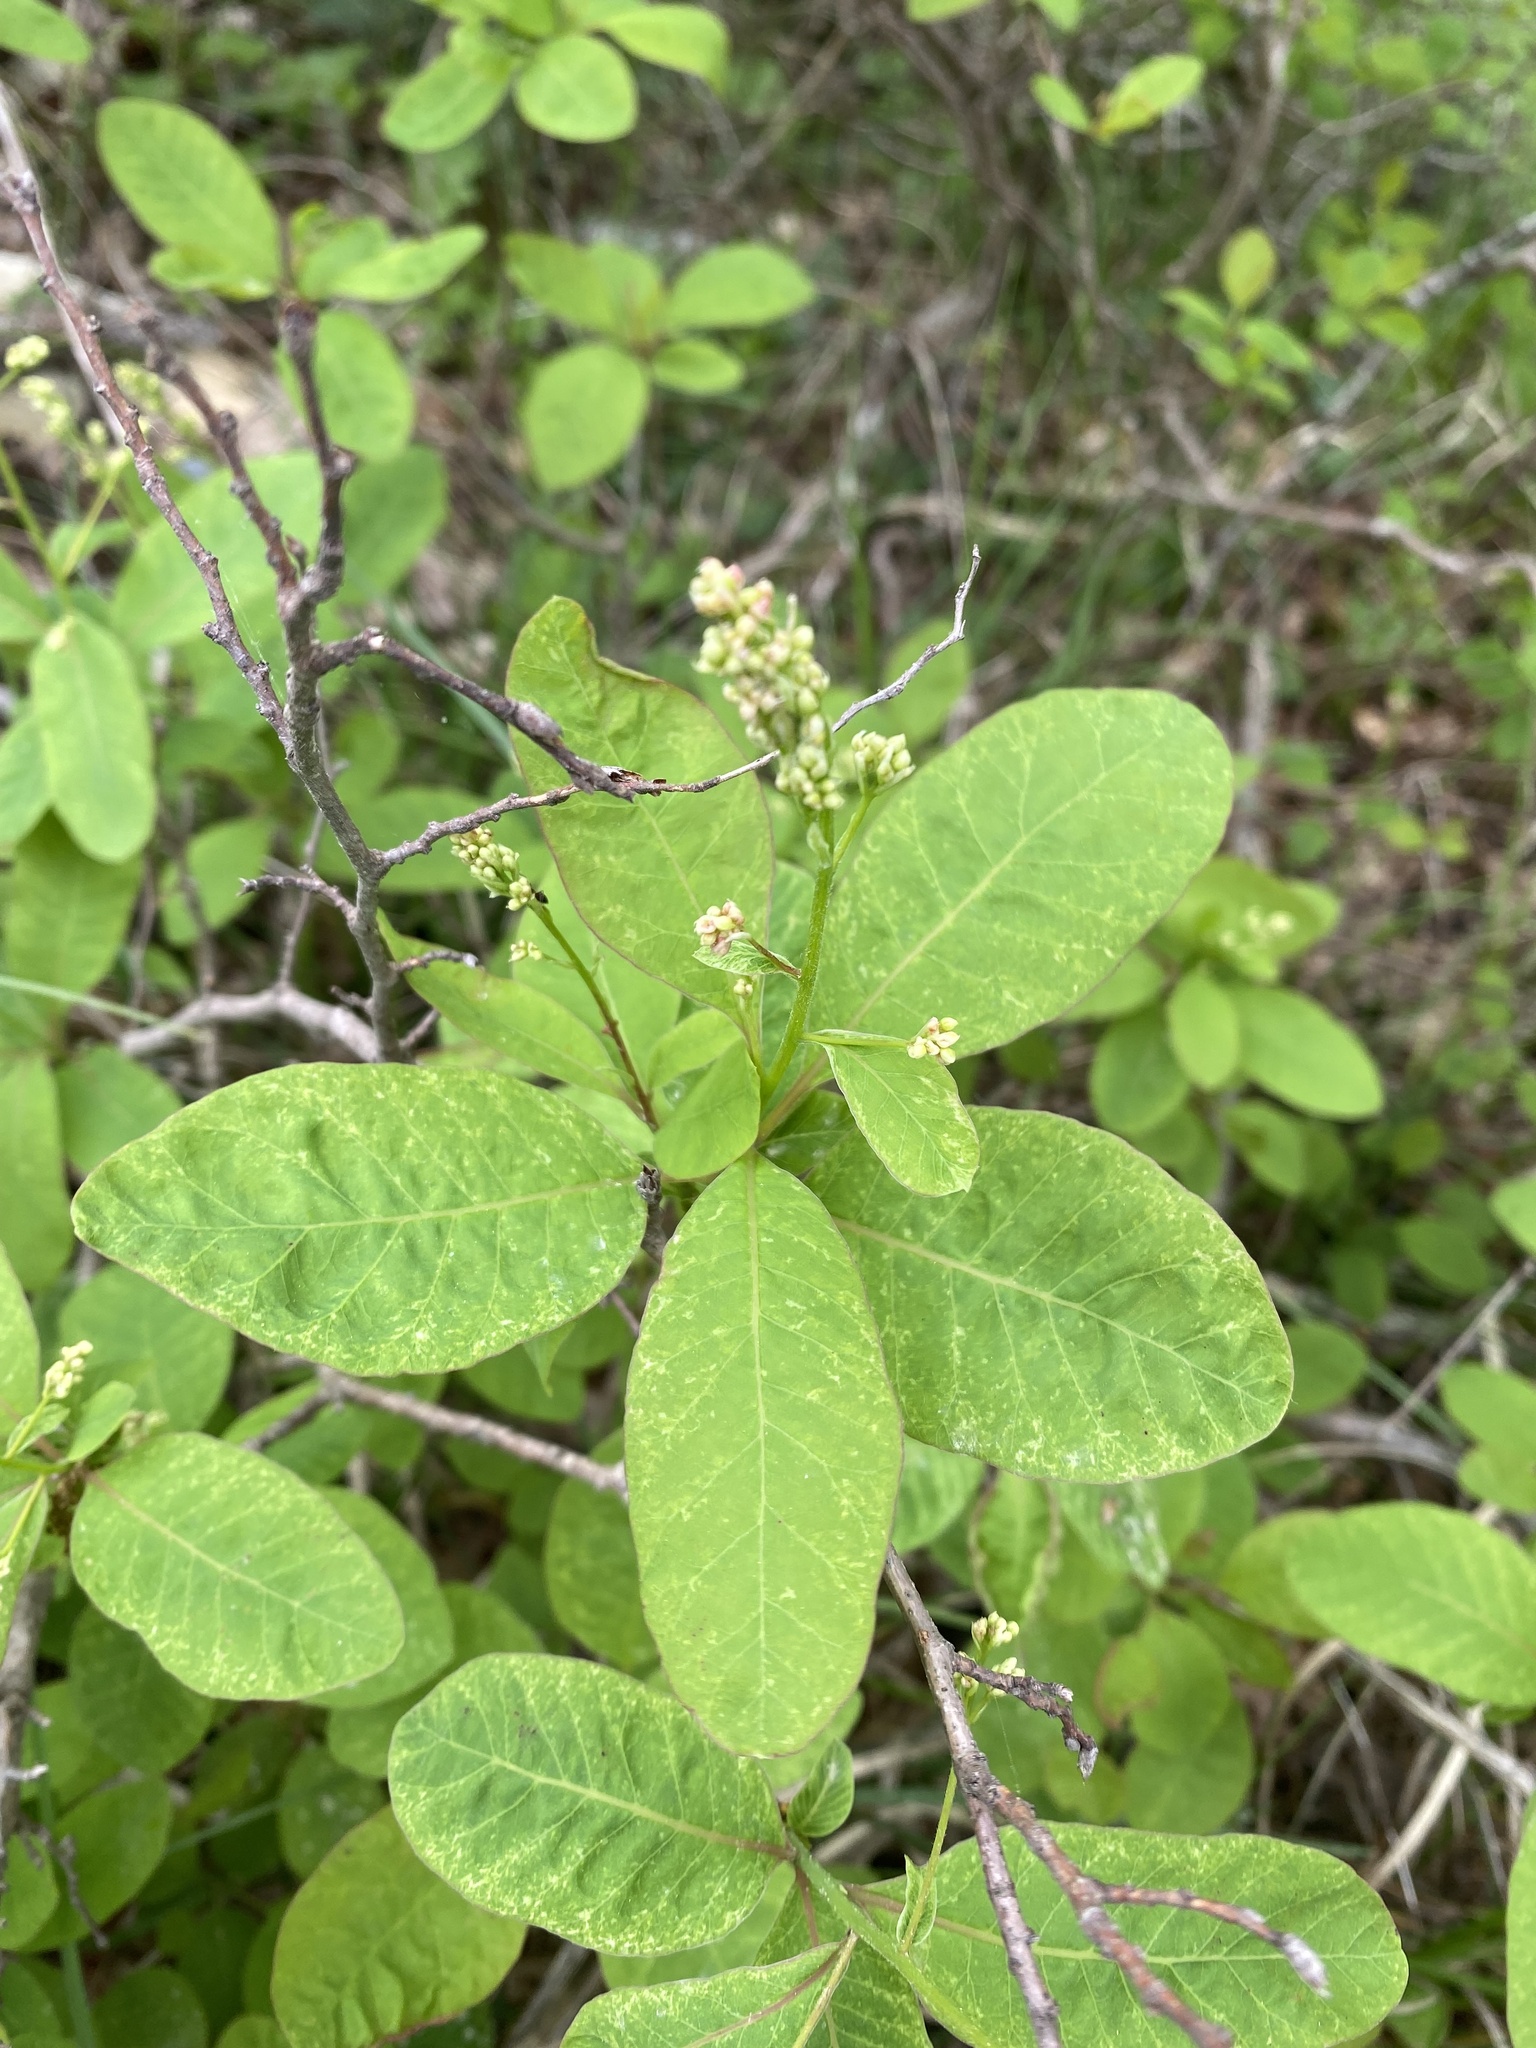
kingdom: Plantae
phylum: Tracheophyta
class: Magnoliopsida
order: Sapindales
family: Anacardiaceae
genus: Cotinus
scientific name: Cotinus coggygria
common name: Smoke-tree
